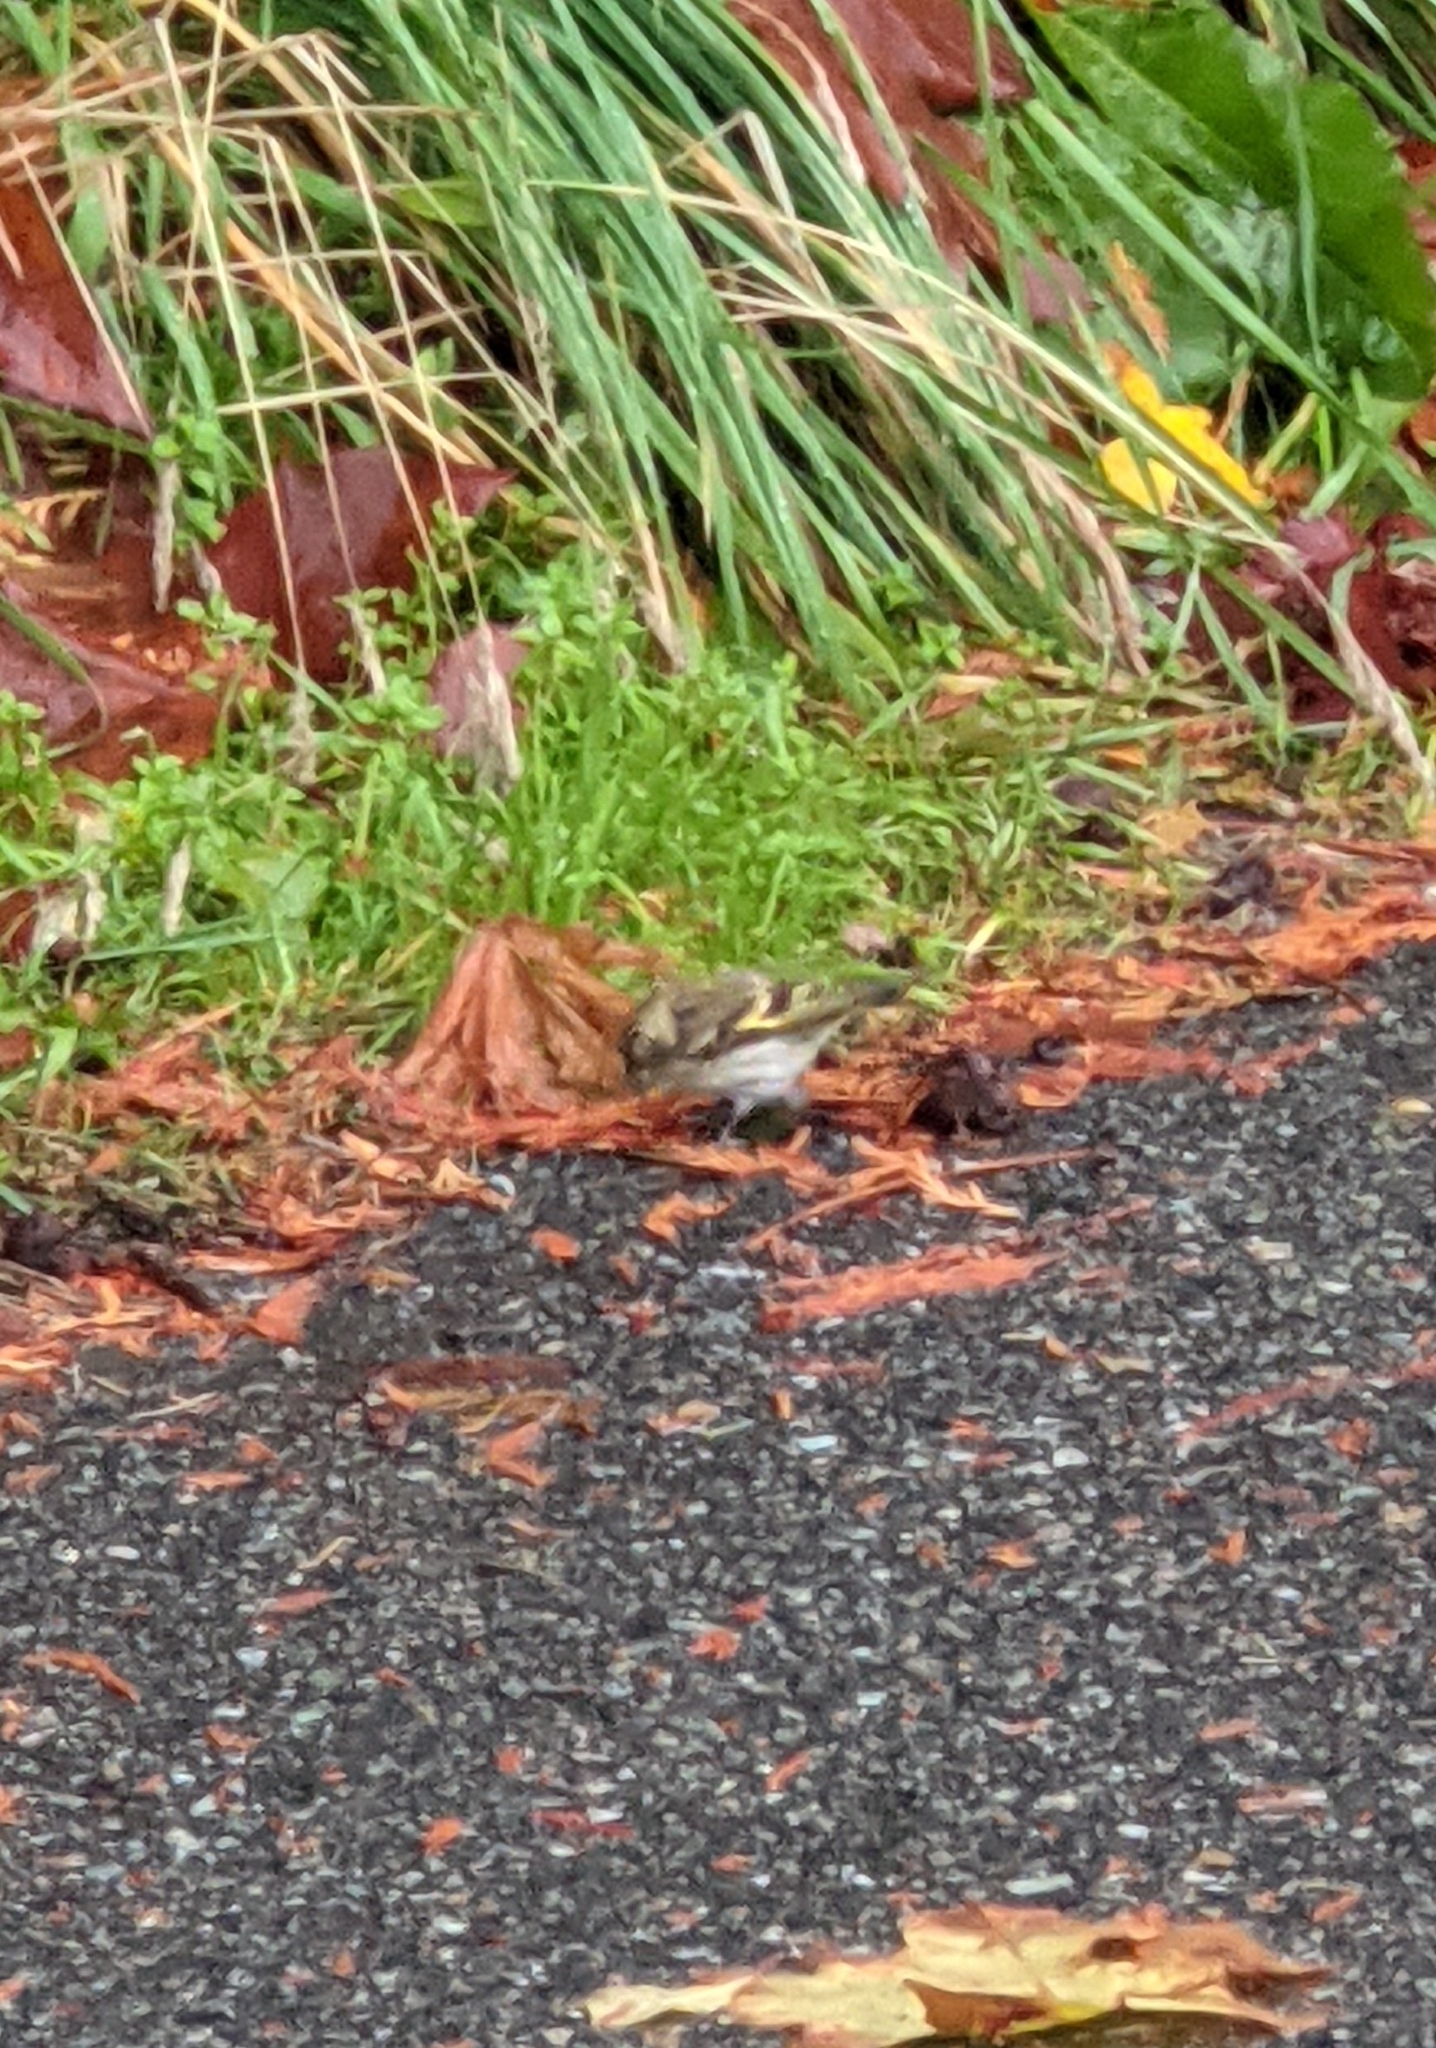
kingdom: Animalia
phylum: Chordata
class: Aves
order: Passeriformes
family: Fringillidae
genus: Spinus
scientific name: Spinus pinus
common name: Pine siskin
